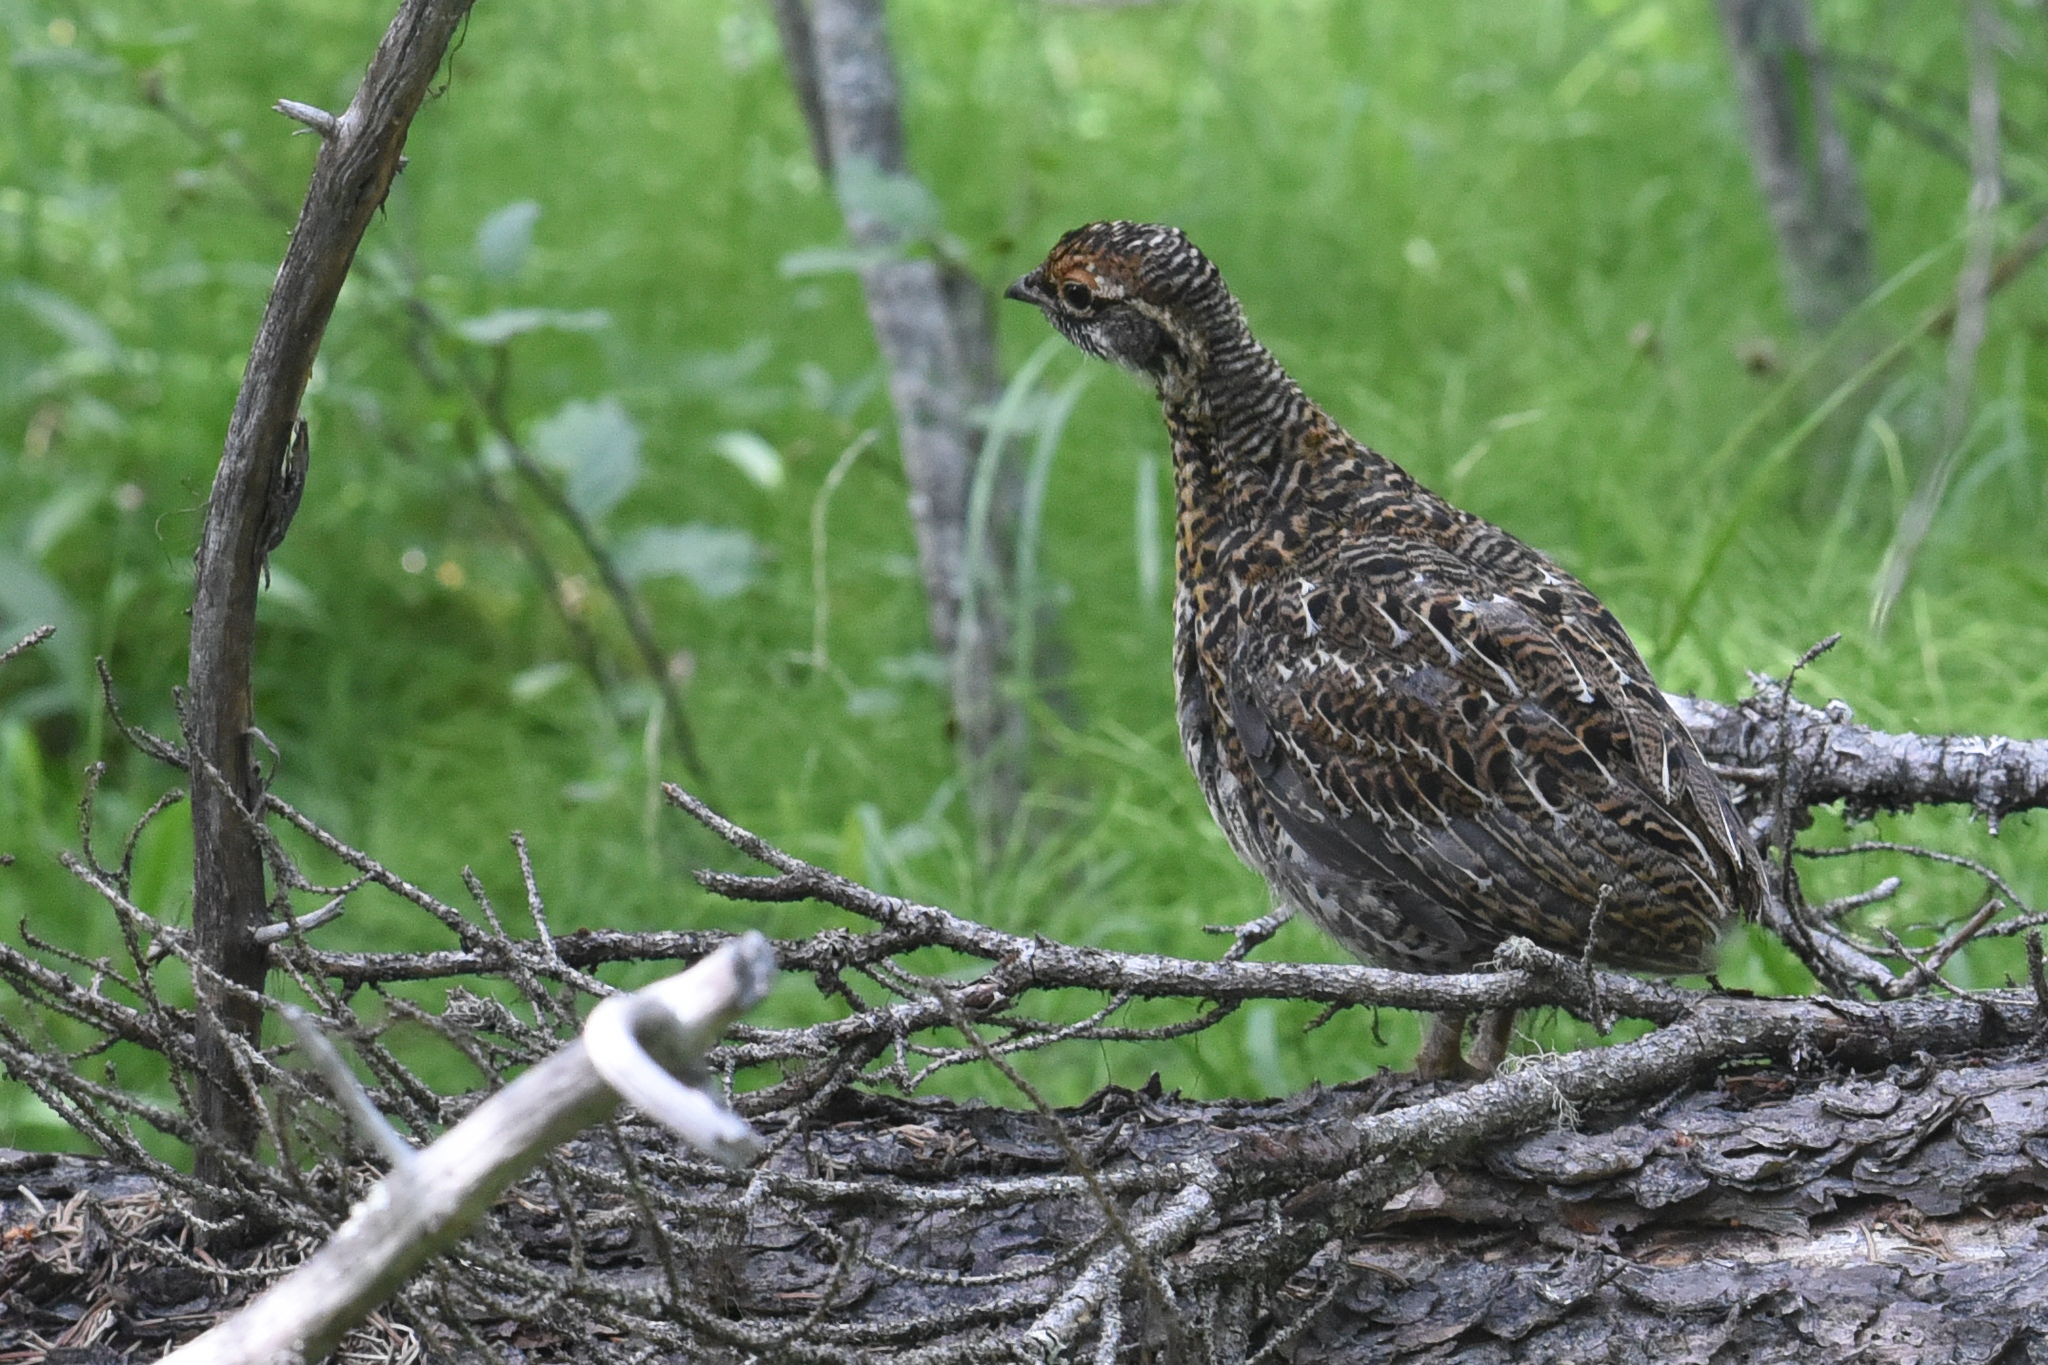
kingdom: Animalia
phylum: Chordata
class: Aves
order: Galliformes
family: Phasianidae
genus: Canachites
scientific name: Canachites canadensis
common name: Spruce grouse
